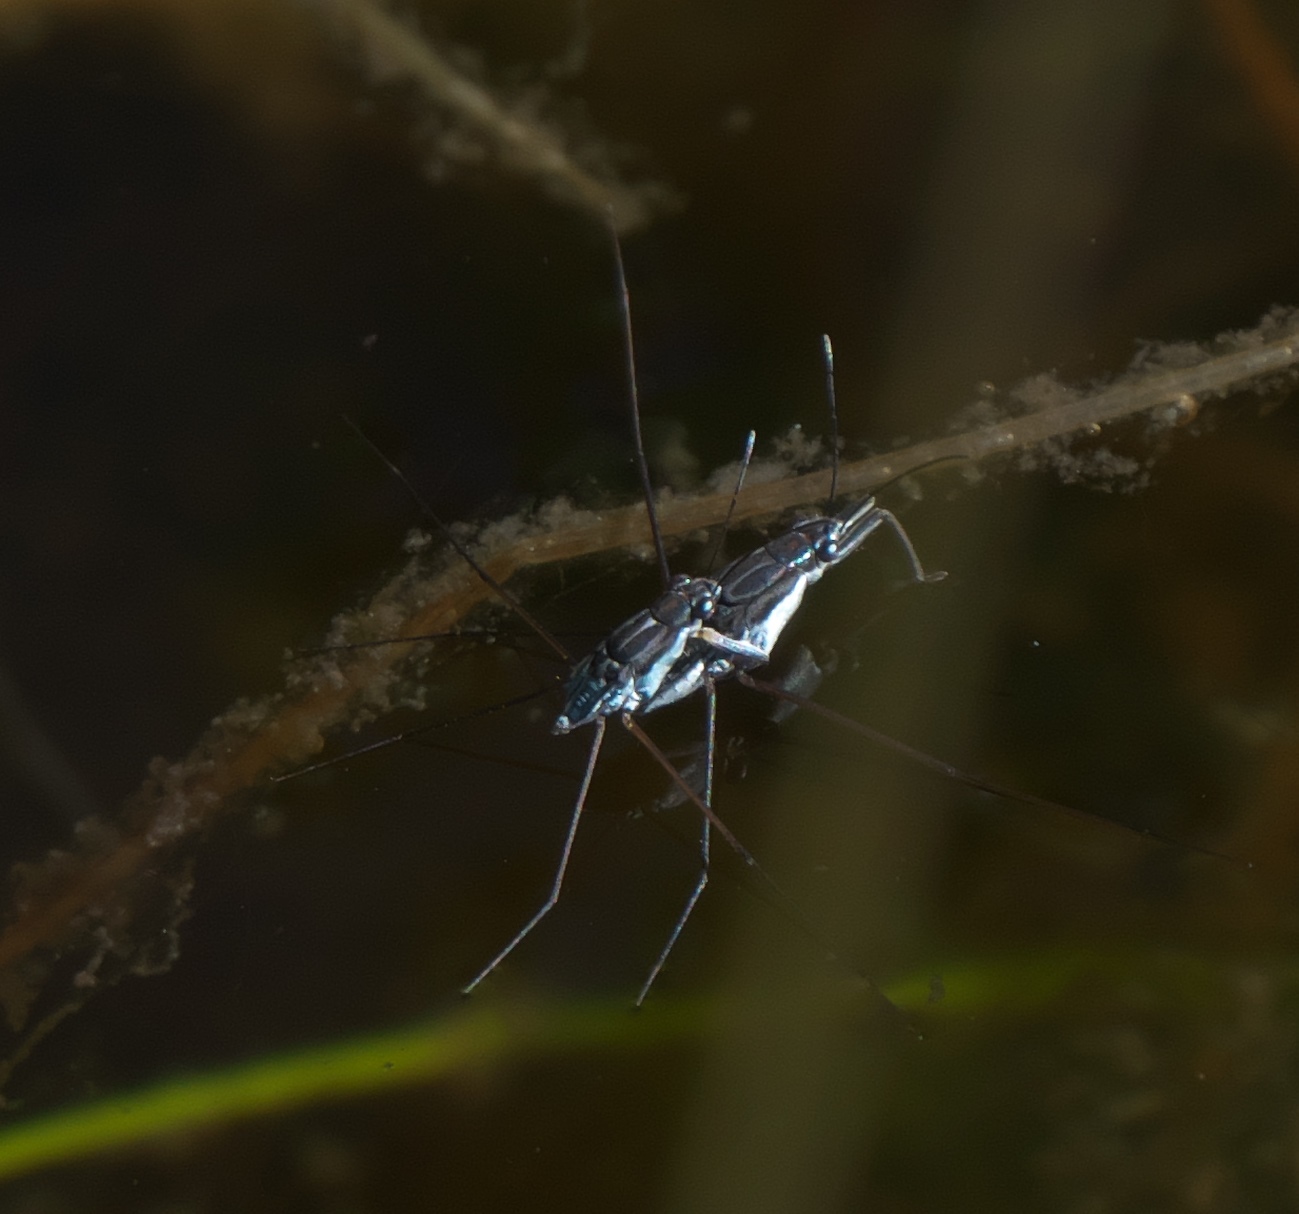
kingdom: Animalia
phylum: Arthropoda
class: Insecta
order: Hemiptera
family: Gerridae
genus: Neogerris
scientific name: Neogerris hesione
